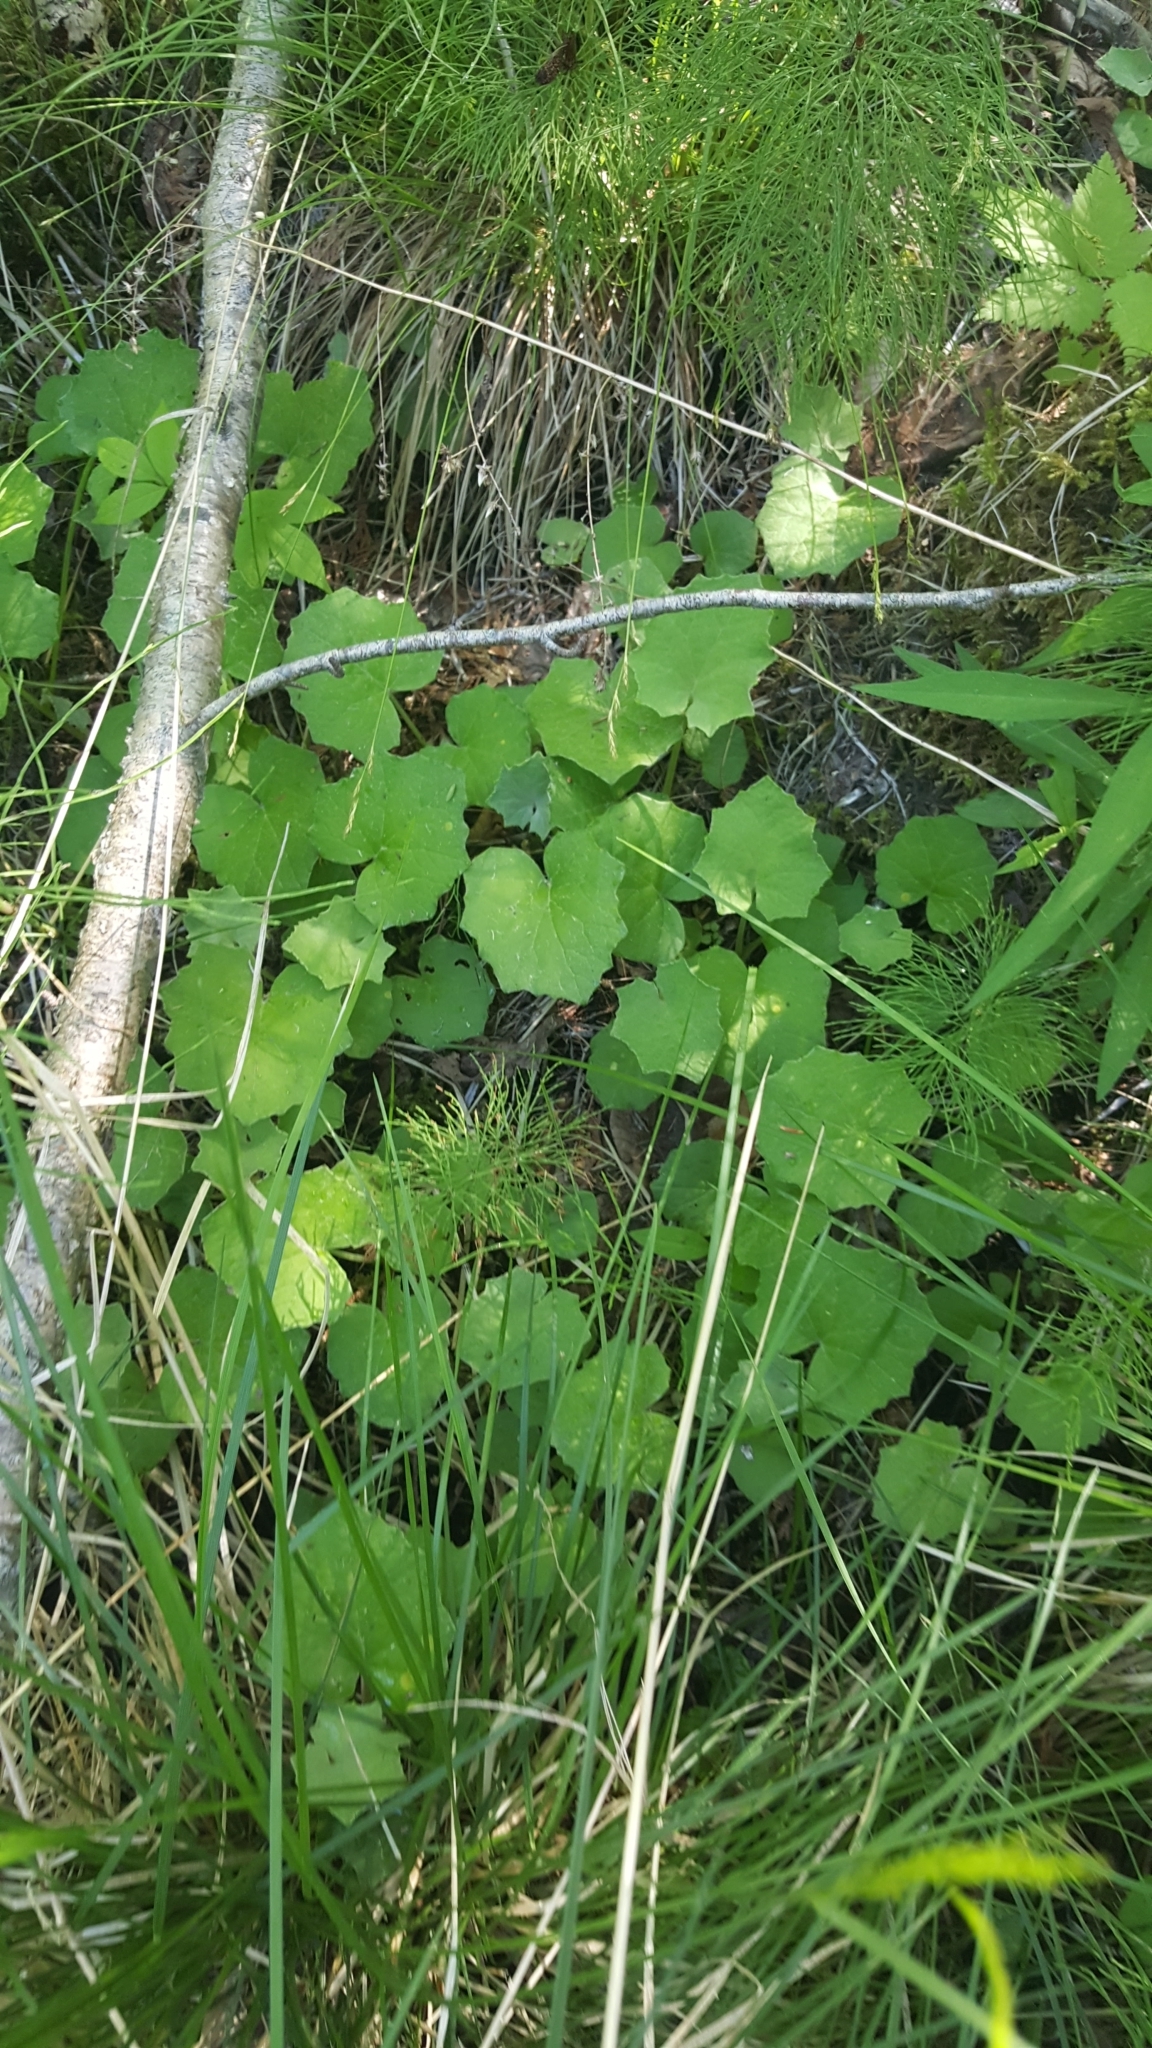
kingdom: Plantae
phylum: Tracheophyta
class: Magnoliopsida
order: Asterales
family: Asteraceae
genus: Tussilago
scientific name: Tussilago farfara
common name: Coltsfoot
